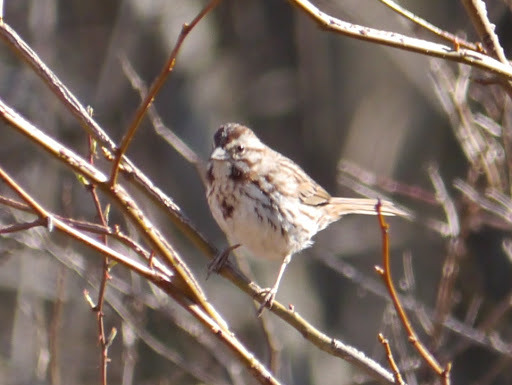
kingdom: Animalia
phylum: Chordata
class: Aves
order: Passeriformes
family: Passerellidae
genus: Melospiza
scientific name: Melospiza melodia
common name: Song sparrow
